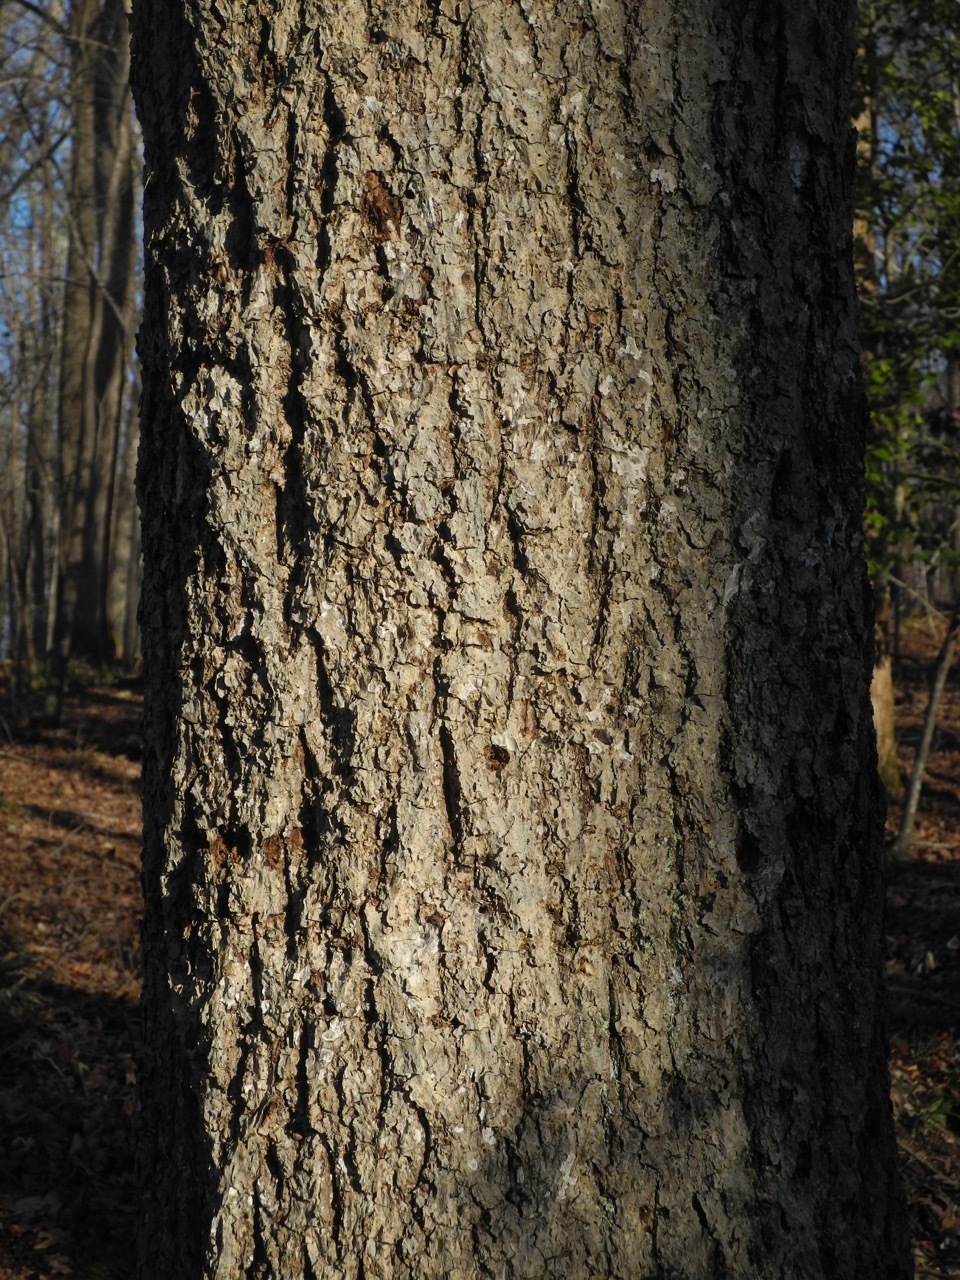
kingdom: Plantae
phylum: Tracheophyta
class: Magnoliopsida
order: Fagales
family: Juglandaceae
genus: Carya
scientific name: Carya alba
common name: Mockernut hickory
